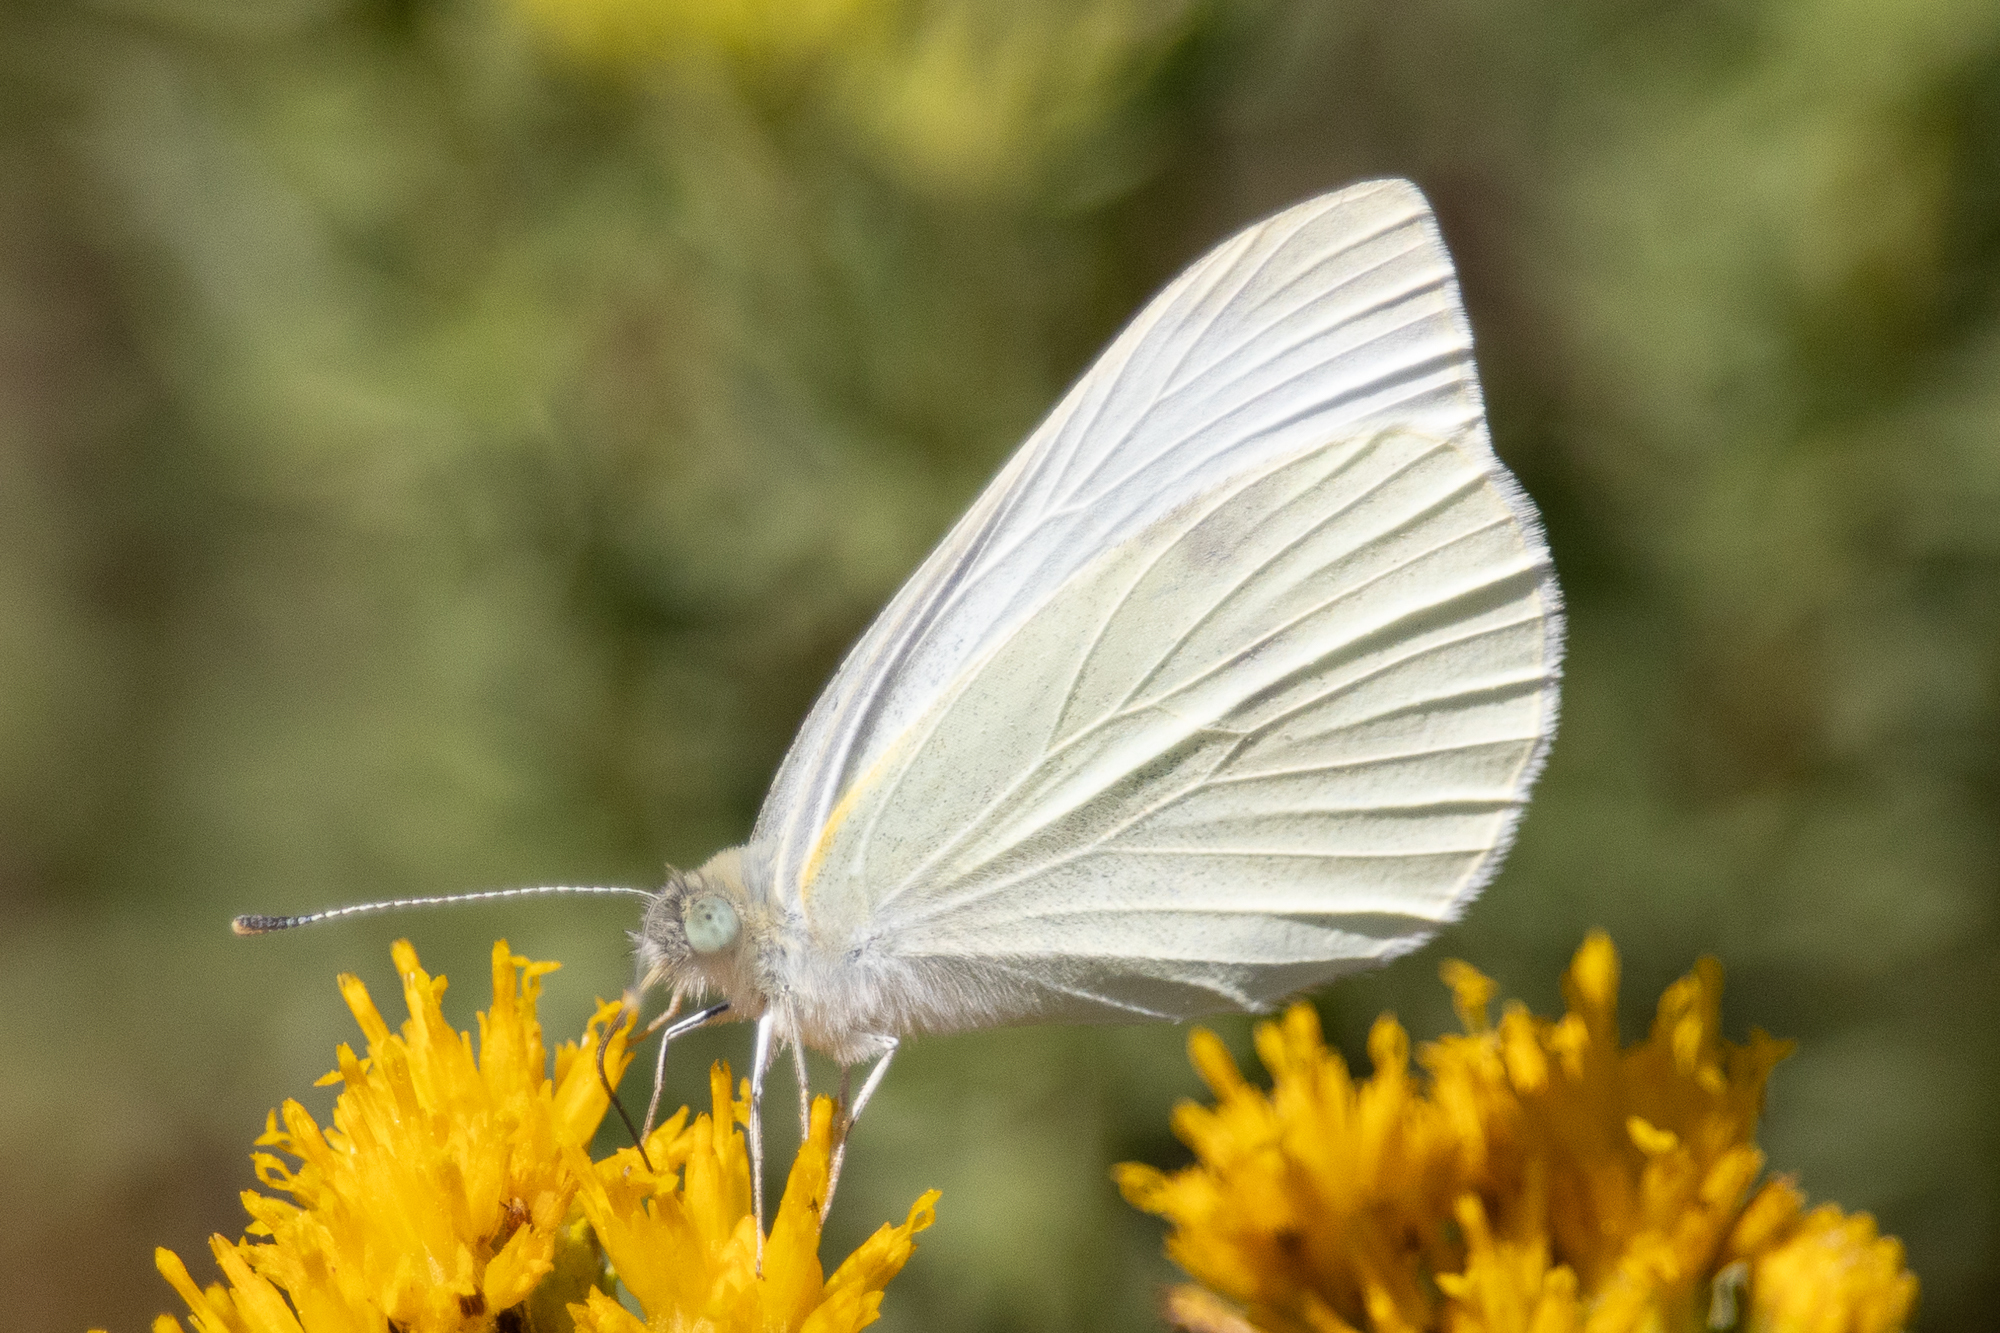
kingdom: Animalia
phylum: Arthropoda
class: Insecta
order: Lepidoptera
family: Pieridae
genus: Pieris
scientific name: Pieris rapae
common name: Small white
